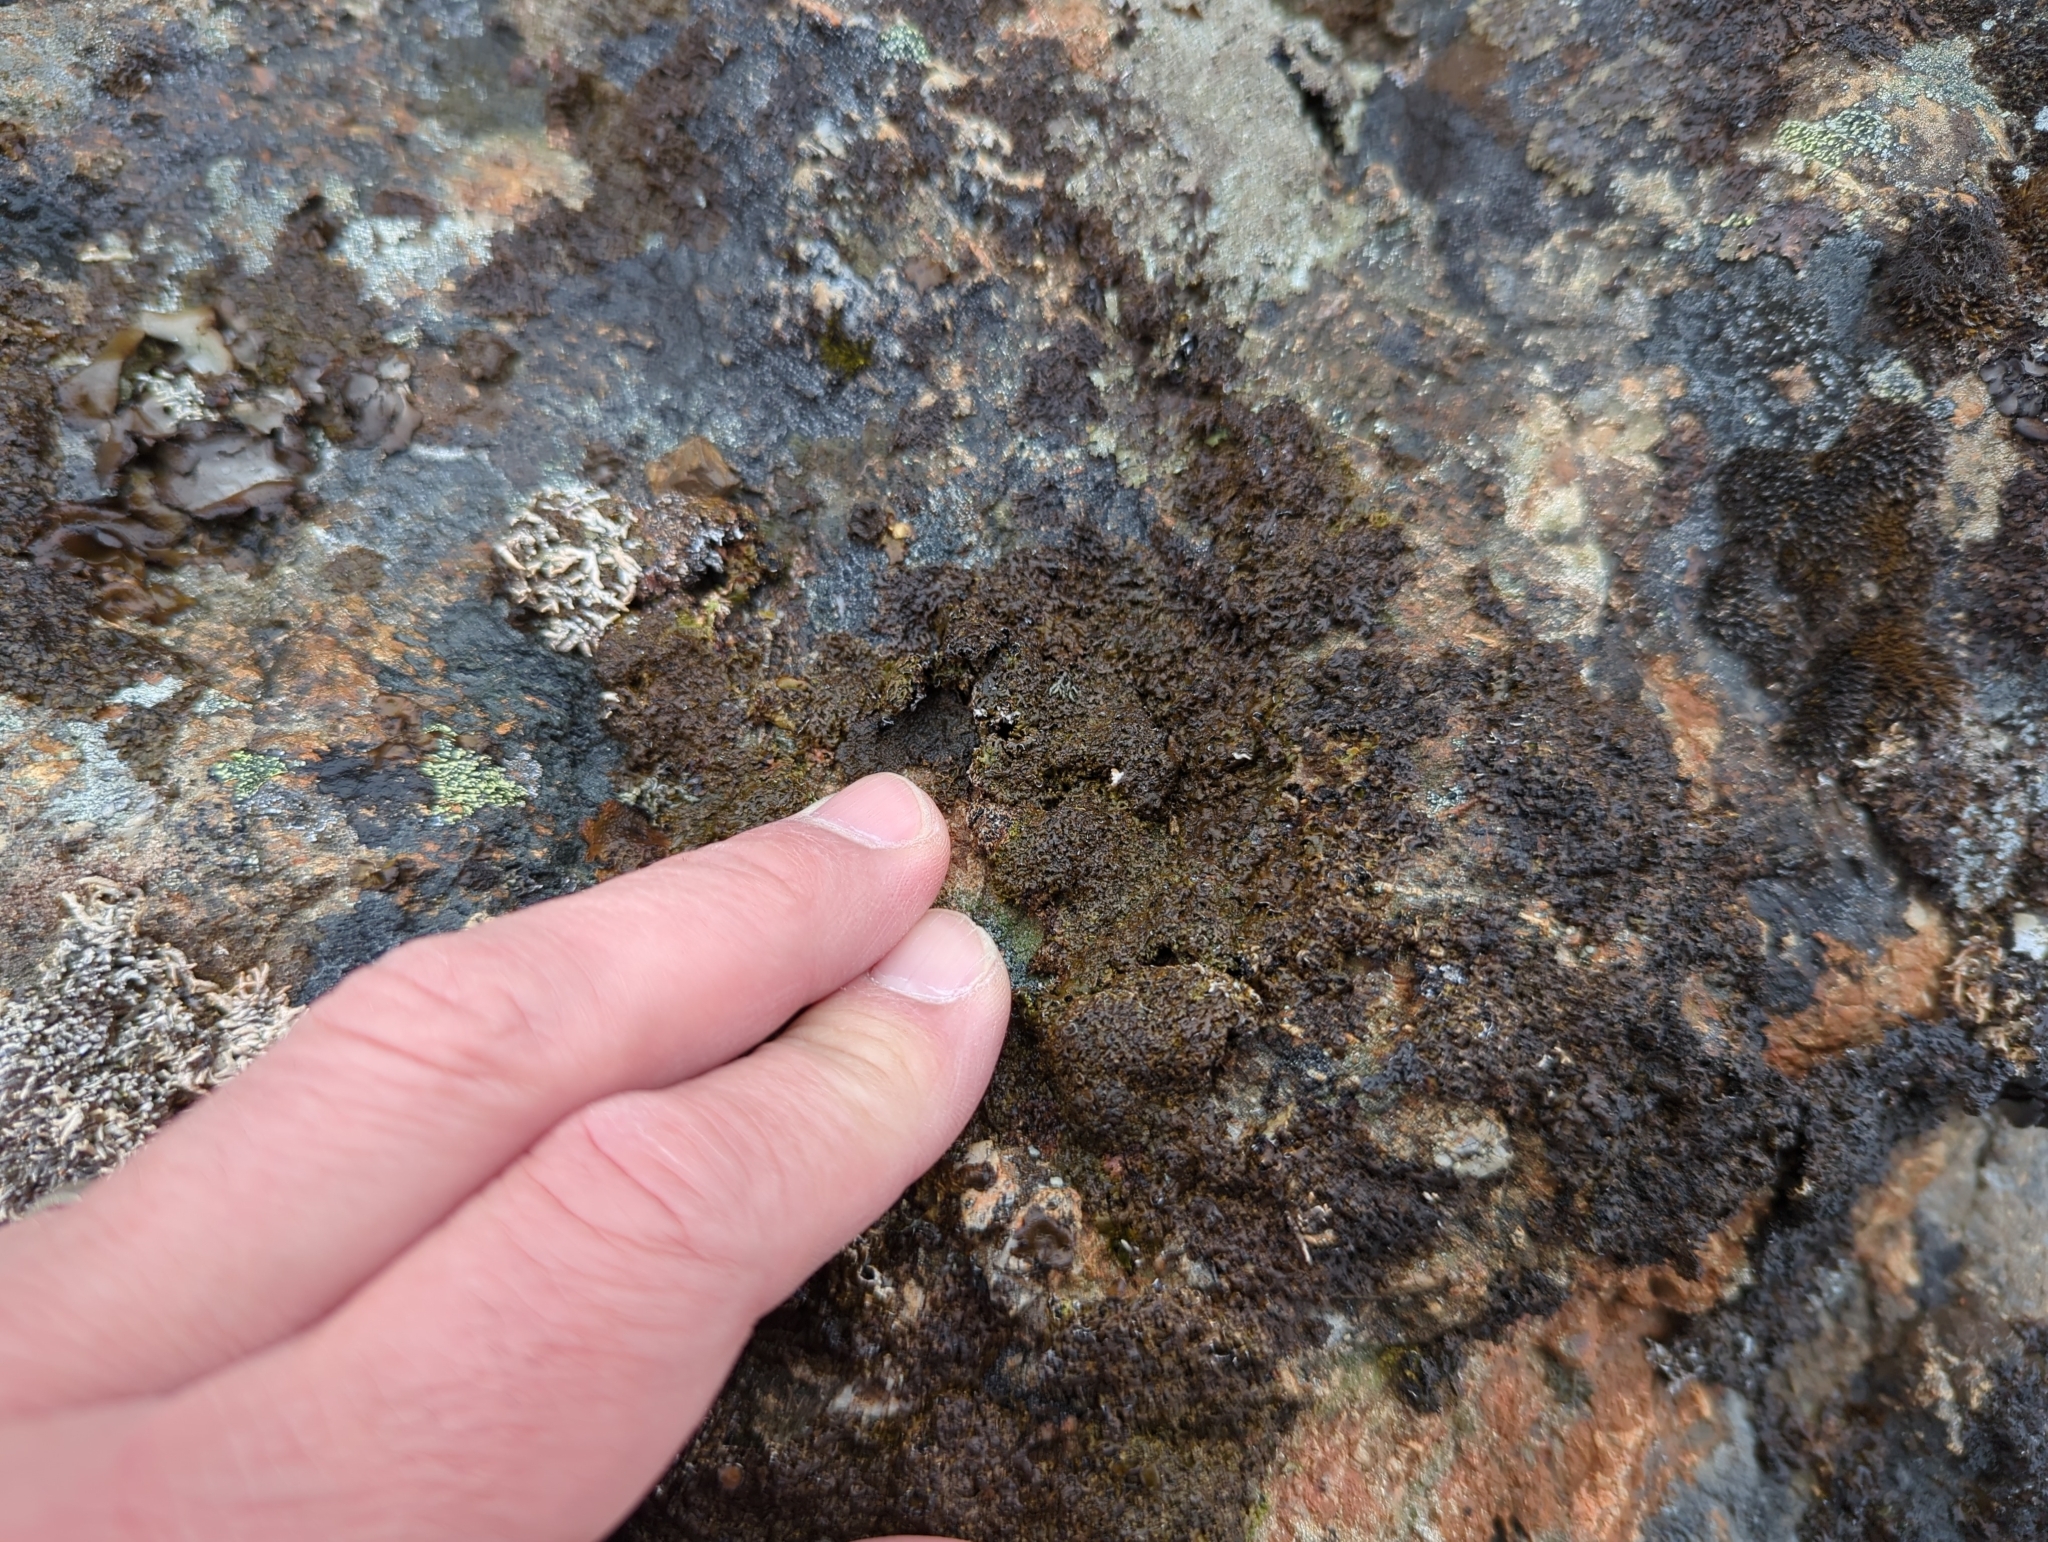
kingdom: Fungi
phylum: Ascomycota
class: Lecanoromycetes
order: Lecanorales
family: Parmeliaceae
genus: Montanelia
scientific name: Montanelia panniformis
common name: Shingled camouflage lichen
